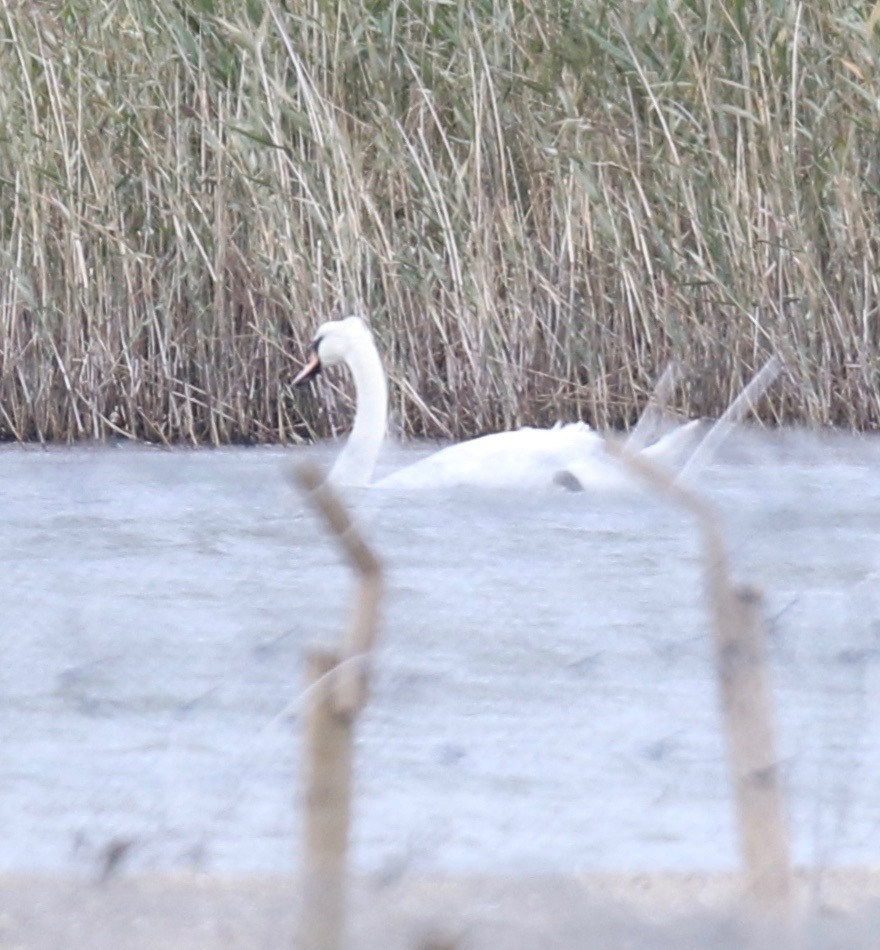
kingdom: Animalia
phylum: Chordata
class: Aves
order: Anseriformes
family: Anatidae
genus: Cygnus
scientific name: Cygnus olor
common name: Mute swan
